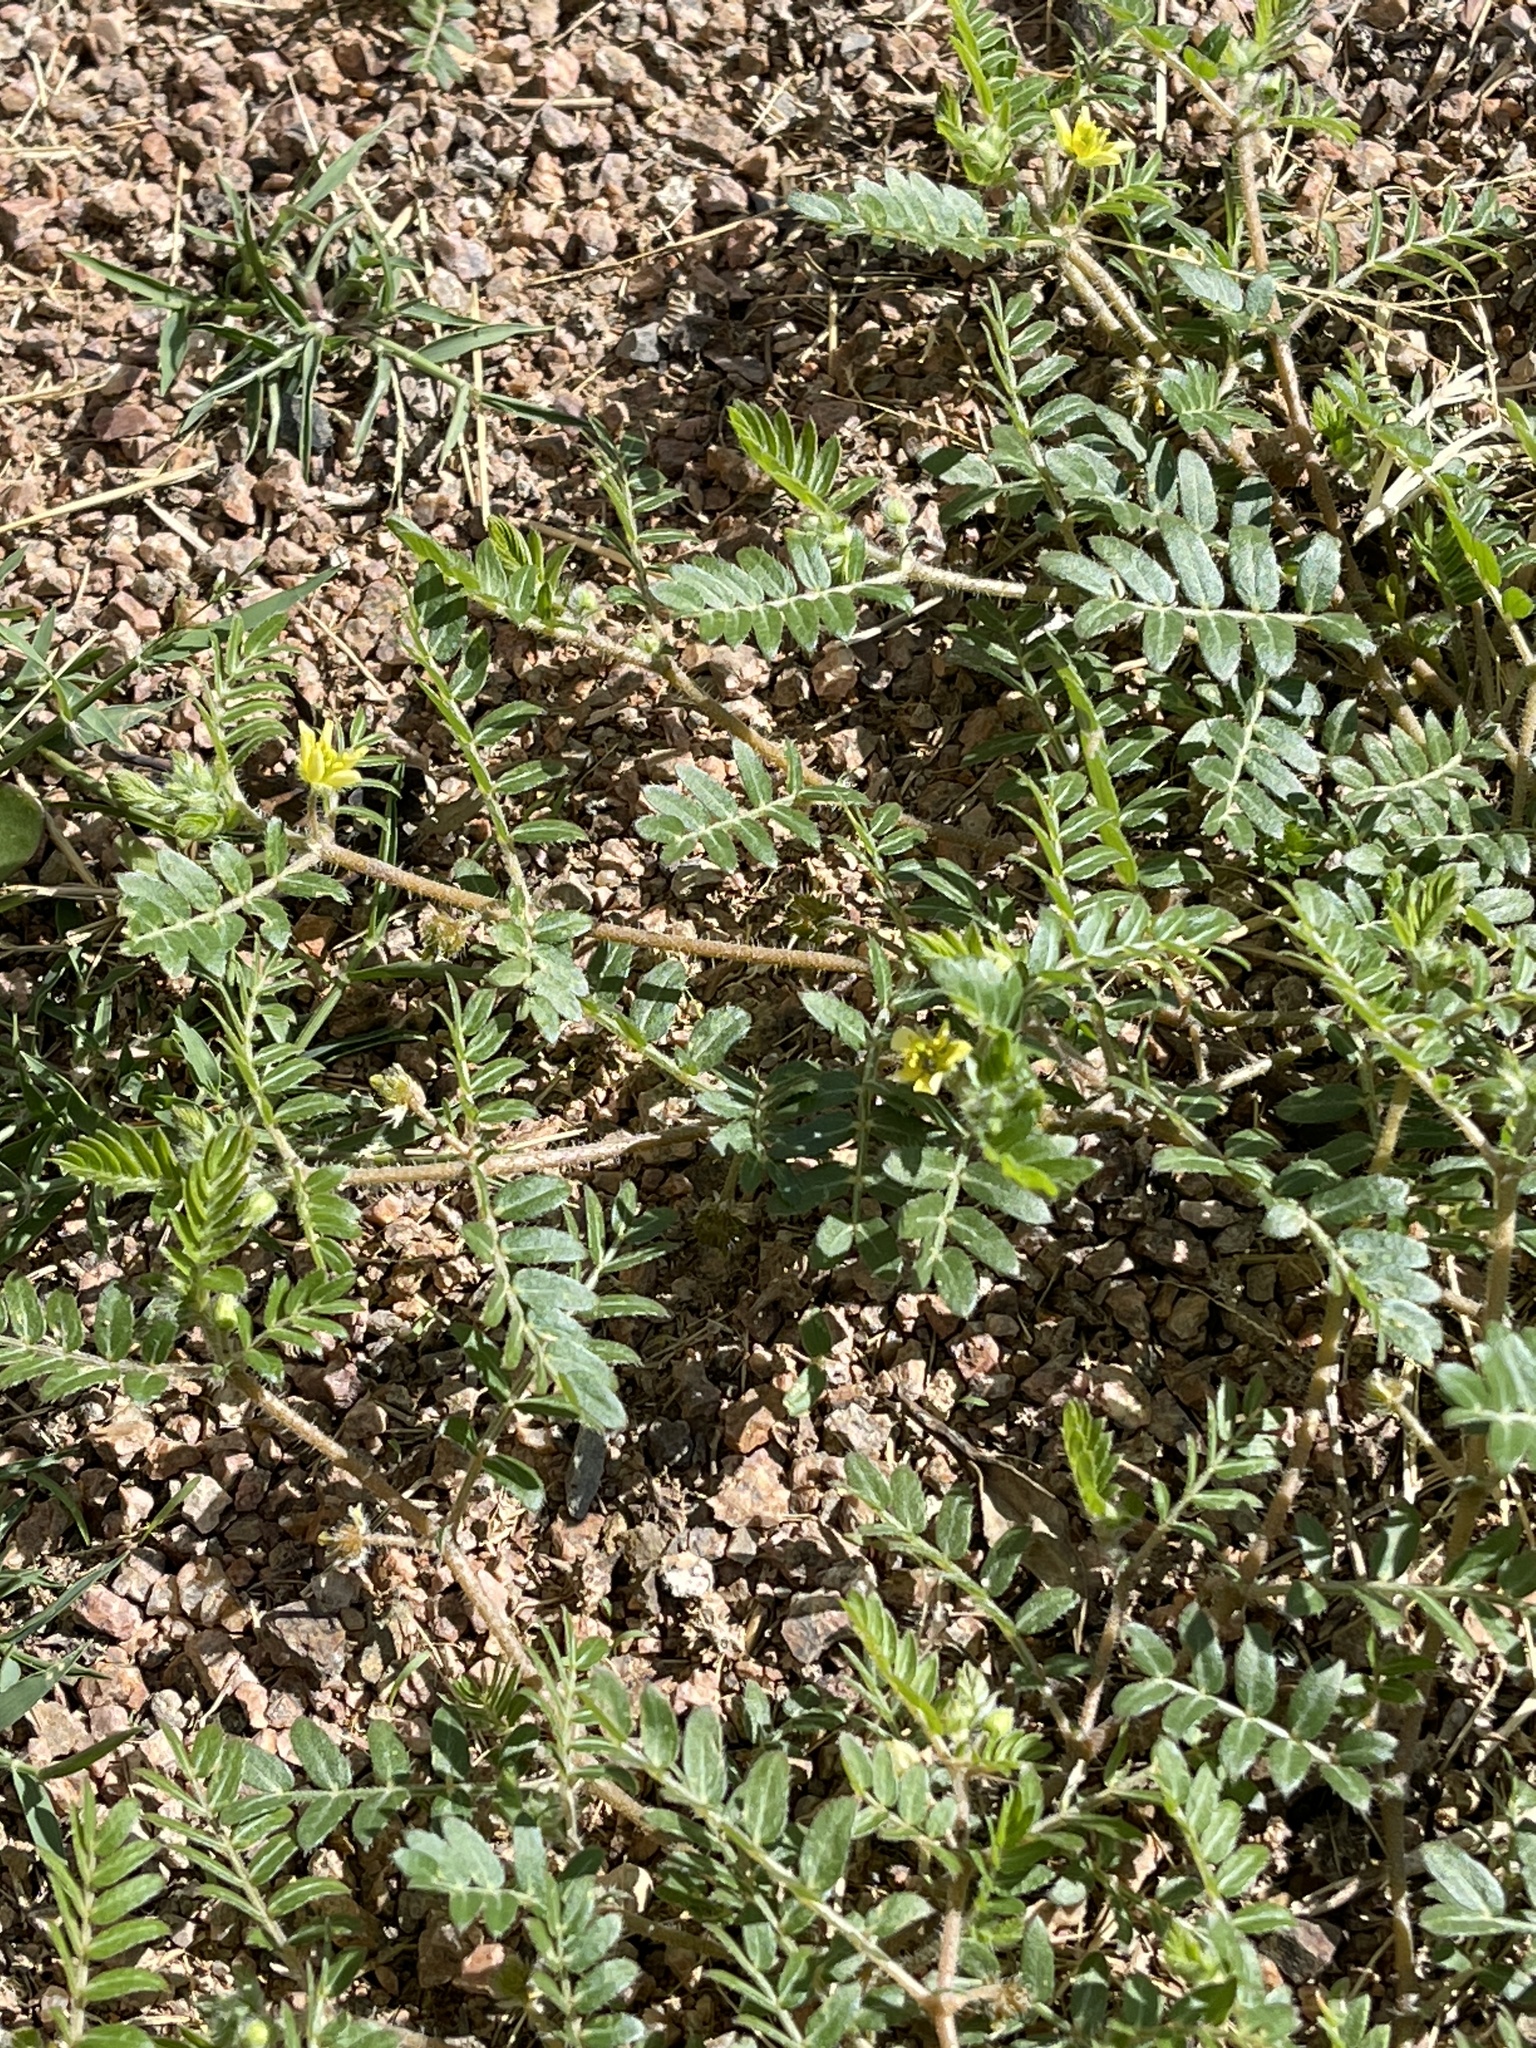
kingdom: Plantae
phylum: Tracheophyta
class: Magnoliopsida
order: Zygophyllales
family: Zygophyllaceae
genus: Tribulus
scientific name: Tribulus terrestris
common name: Puncturevine
